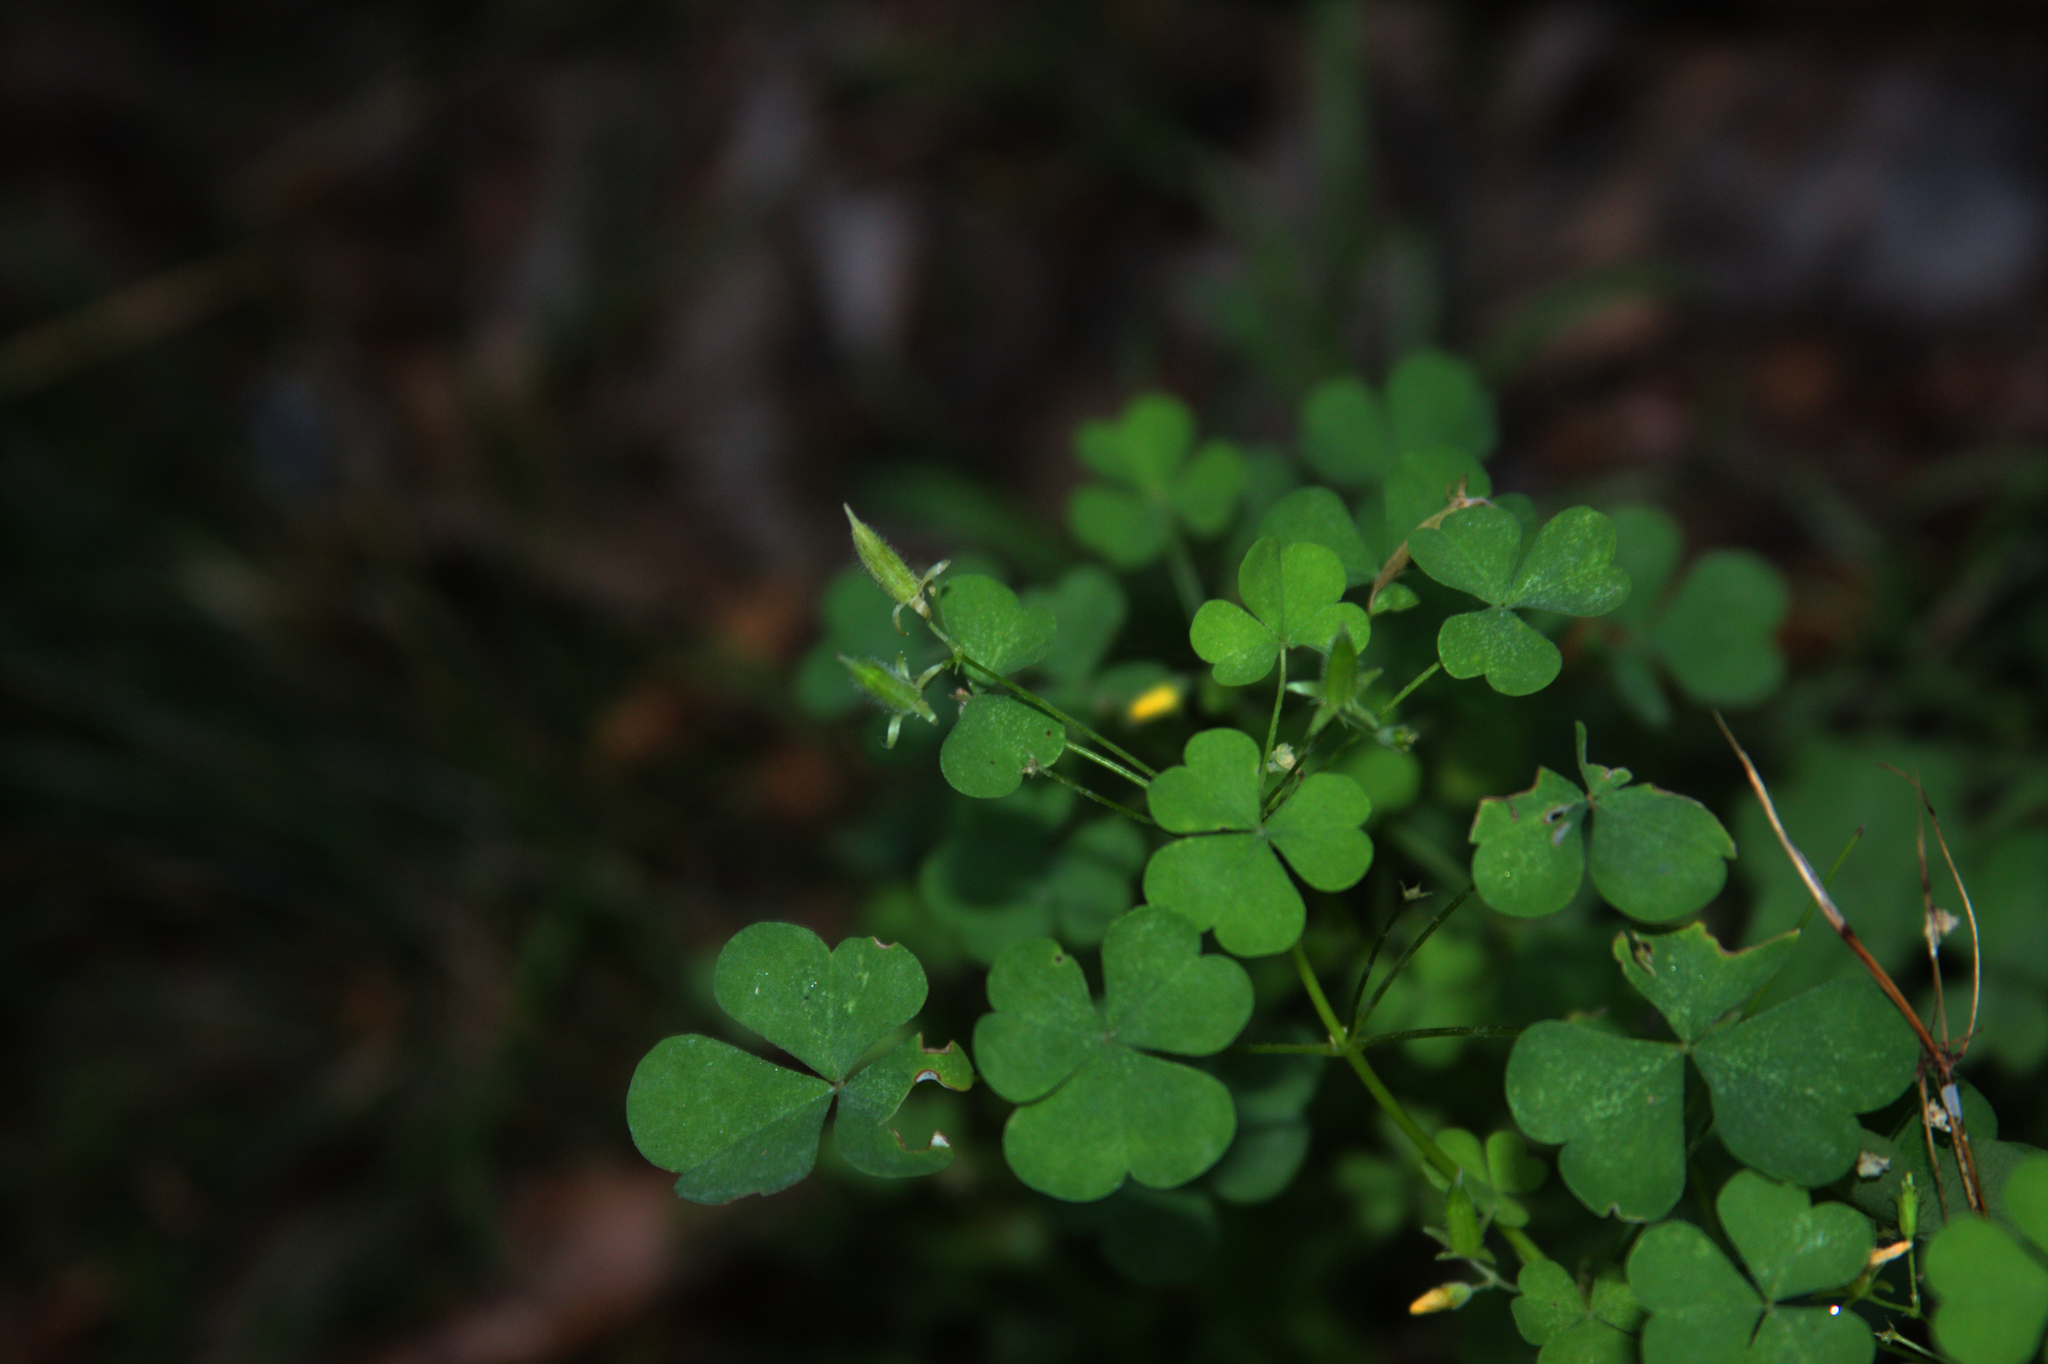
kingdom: Plantae
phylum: Tracheophyta
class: Magnoliopsida
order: Oxalidales
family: Oxalidaceae
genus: Oxalis
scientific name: Oxalis stricta
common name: Upright yellow-sorrel
